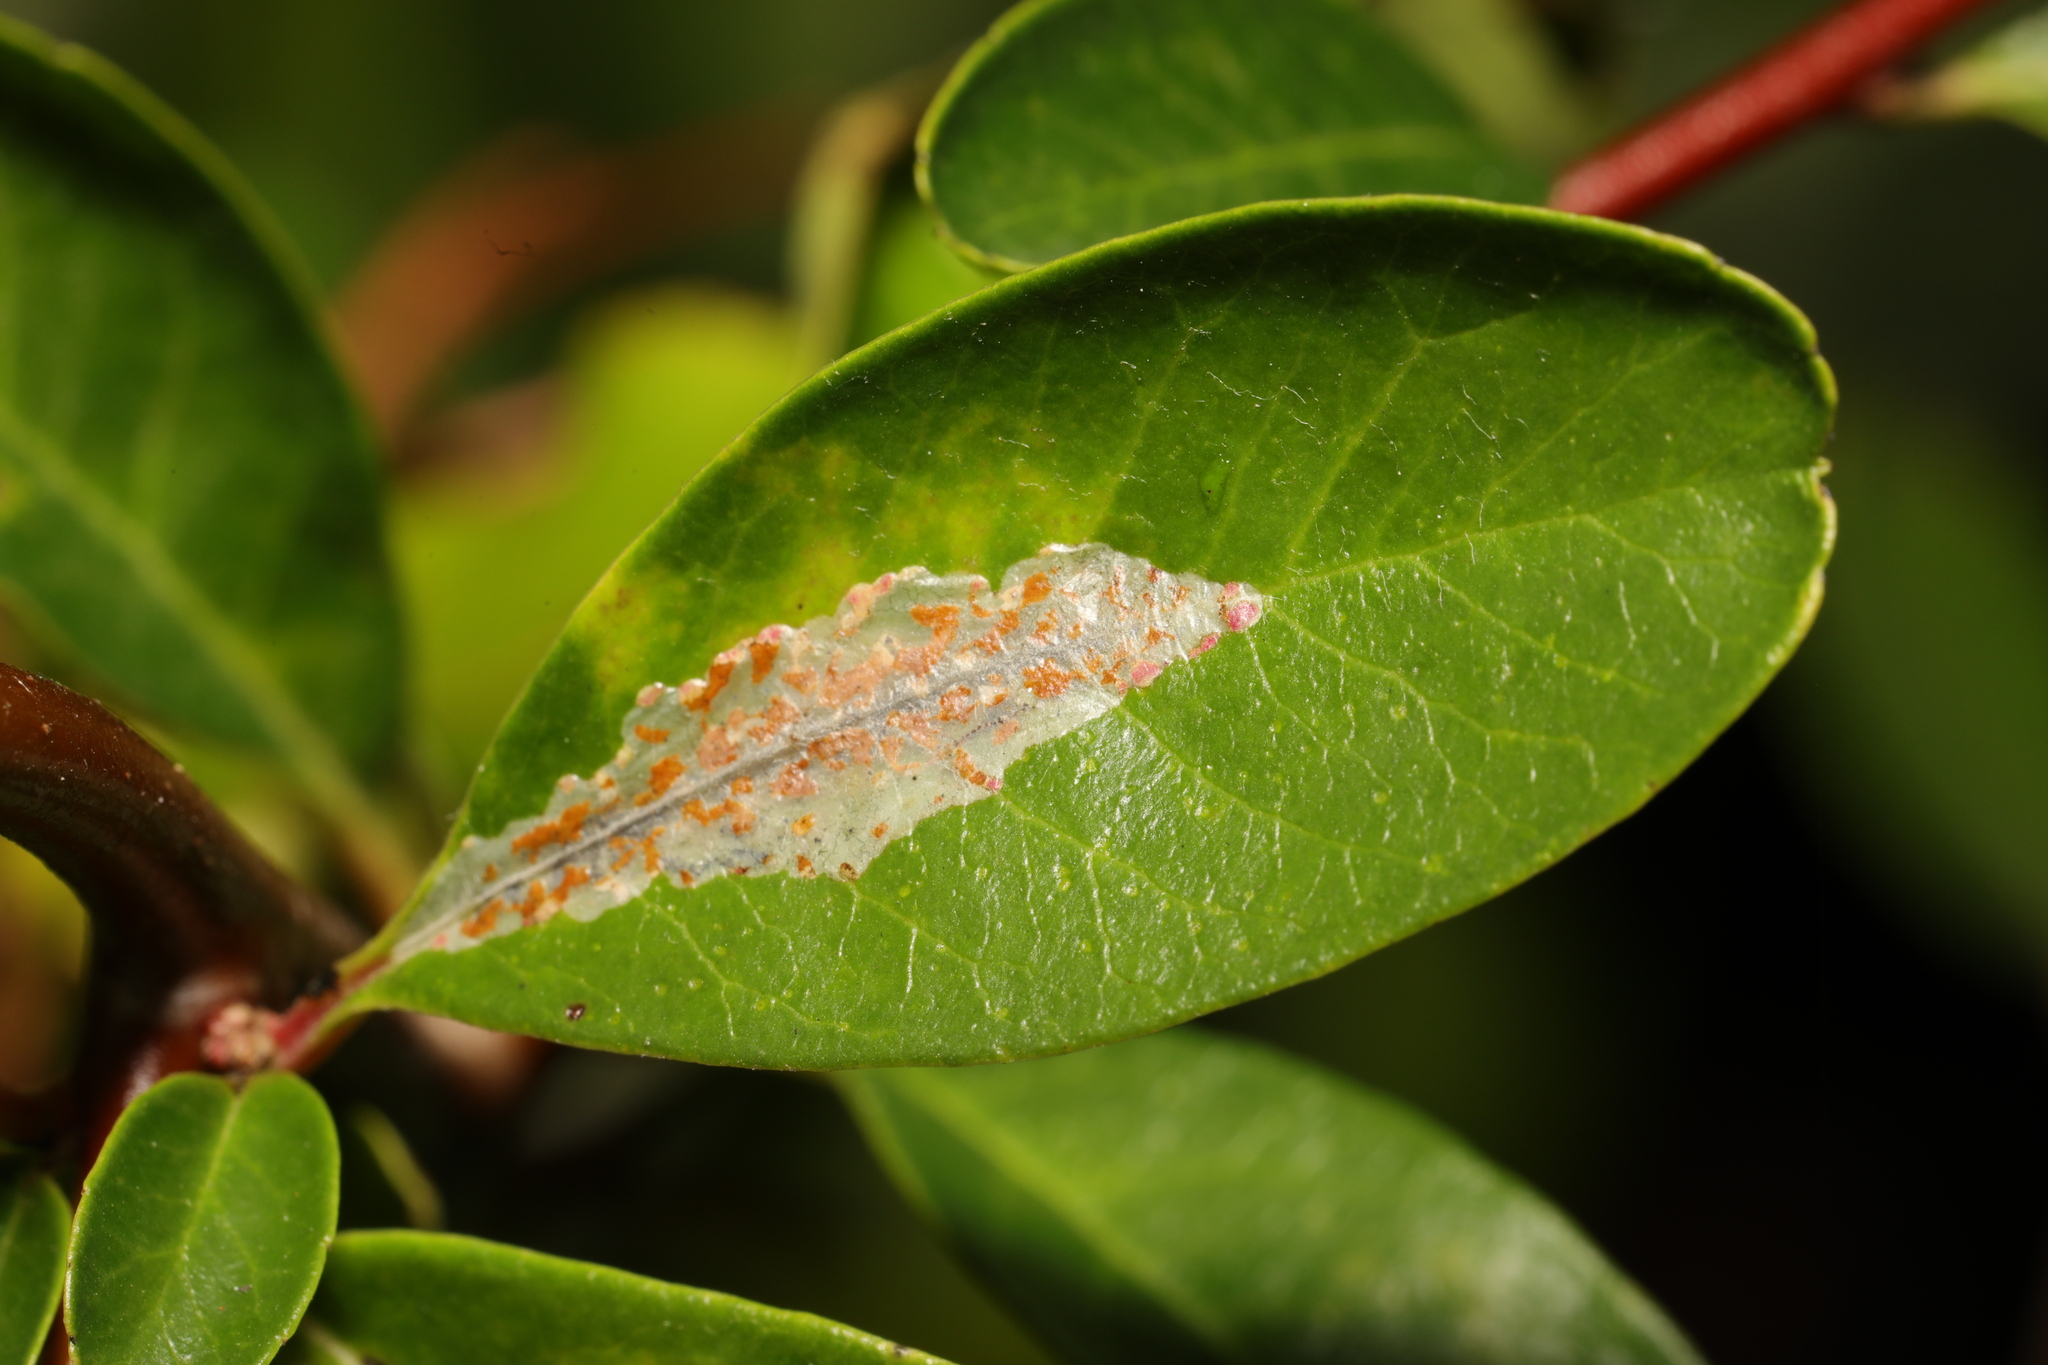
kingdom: Animalia
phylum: Arthropoda
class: Insecta
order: Lepidoptera
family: Gracillariidae
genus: Phyllonorycter
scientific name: Phyllonorycter leucographella
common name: Firethorn leaf-miner
